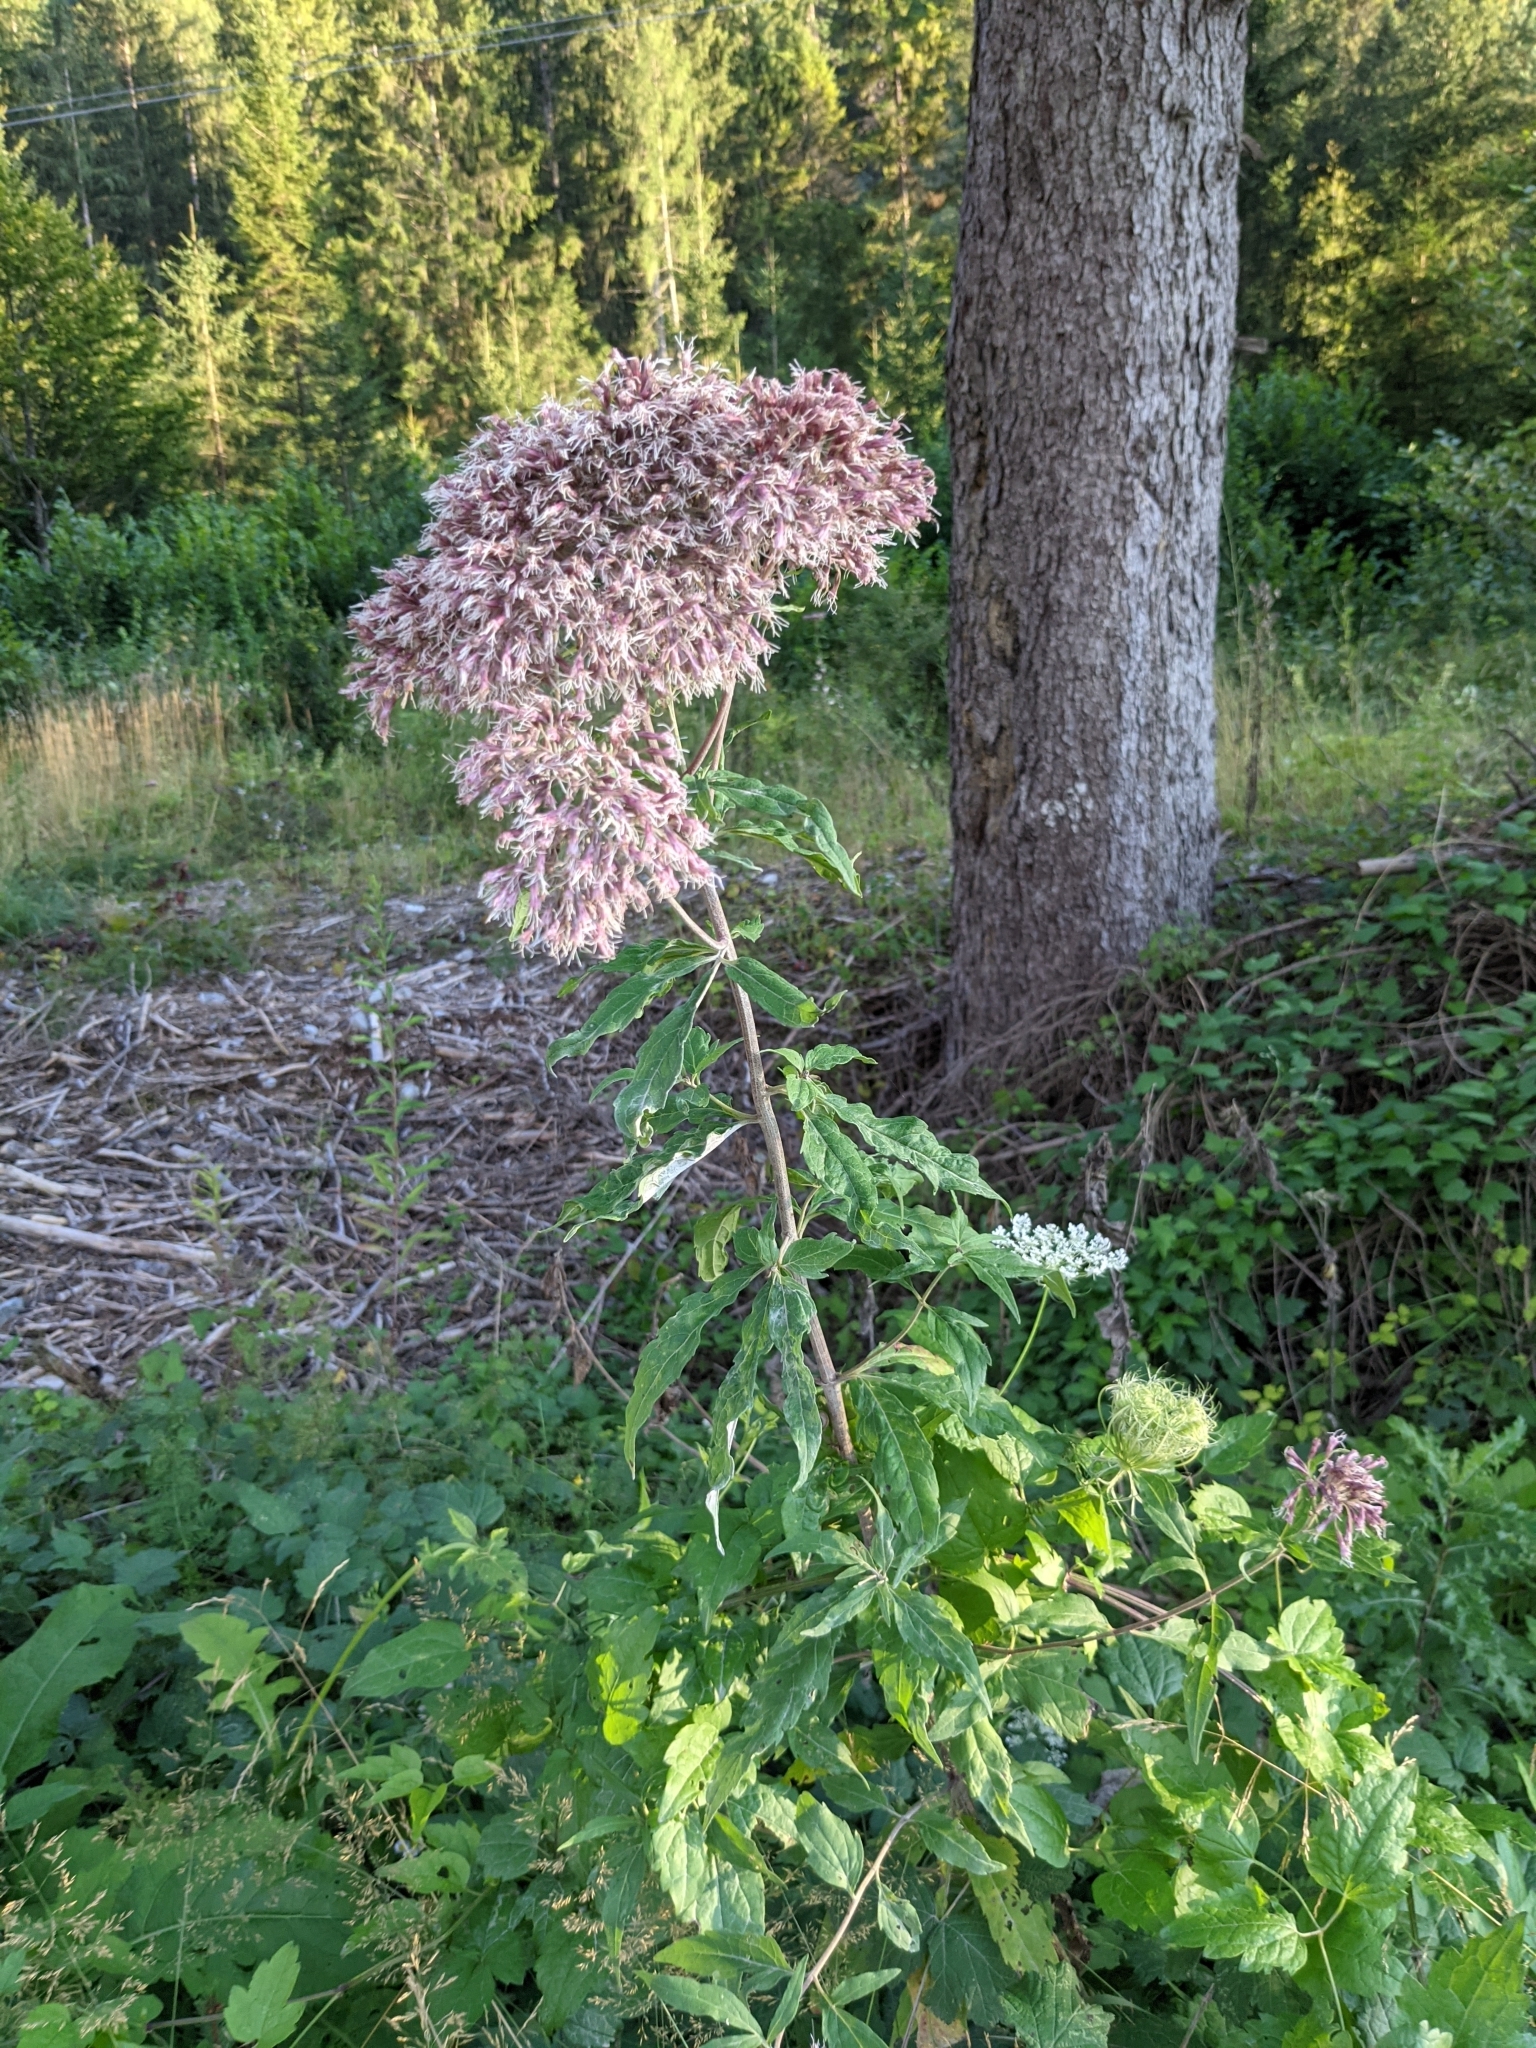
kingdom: Plantae
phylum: Tracheophyta
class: Magnoliopsida
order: Asterales
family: Asteraceae
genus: Eupatorium
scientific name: Eupatorium cannabinum
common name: Hemp-agrimony
